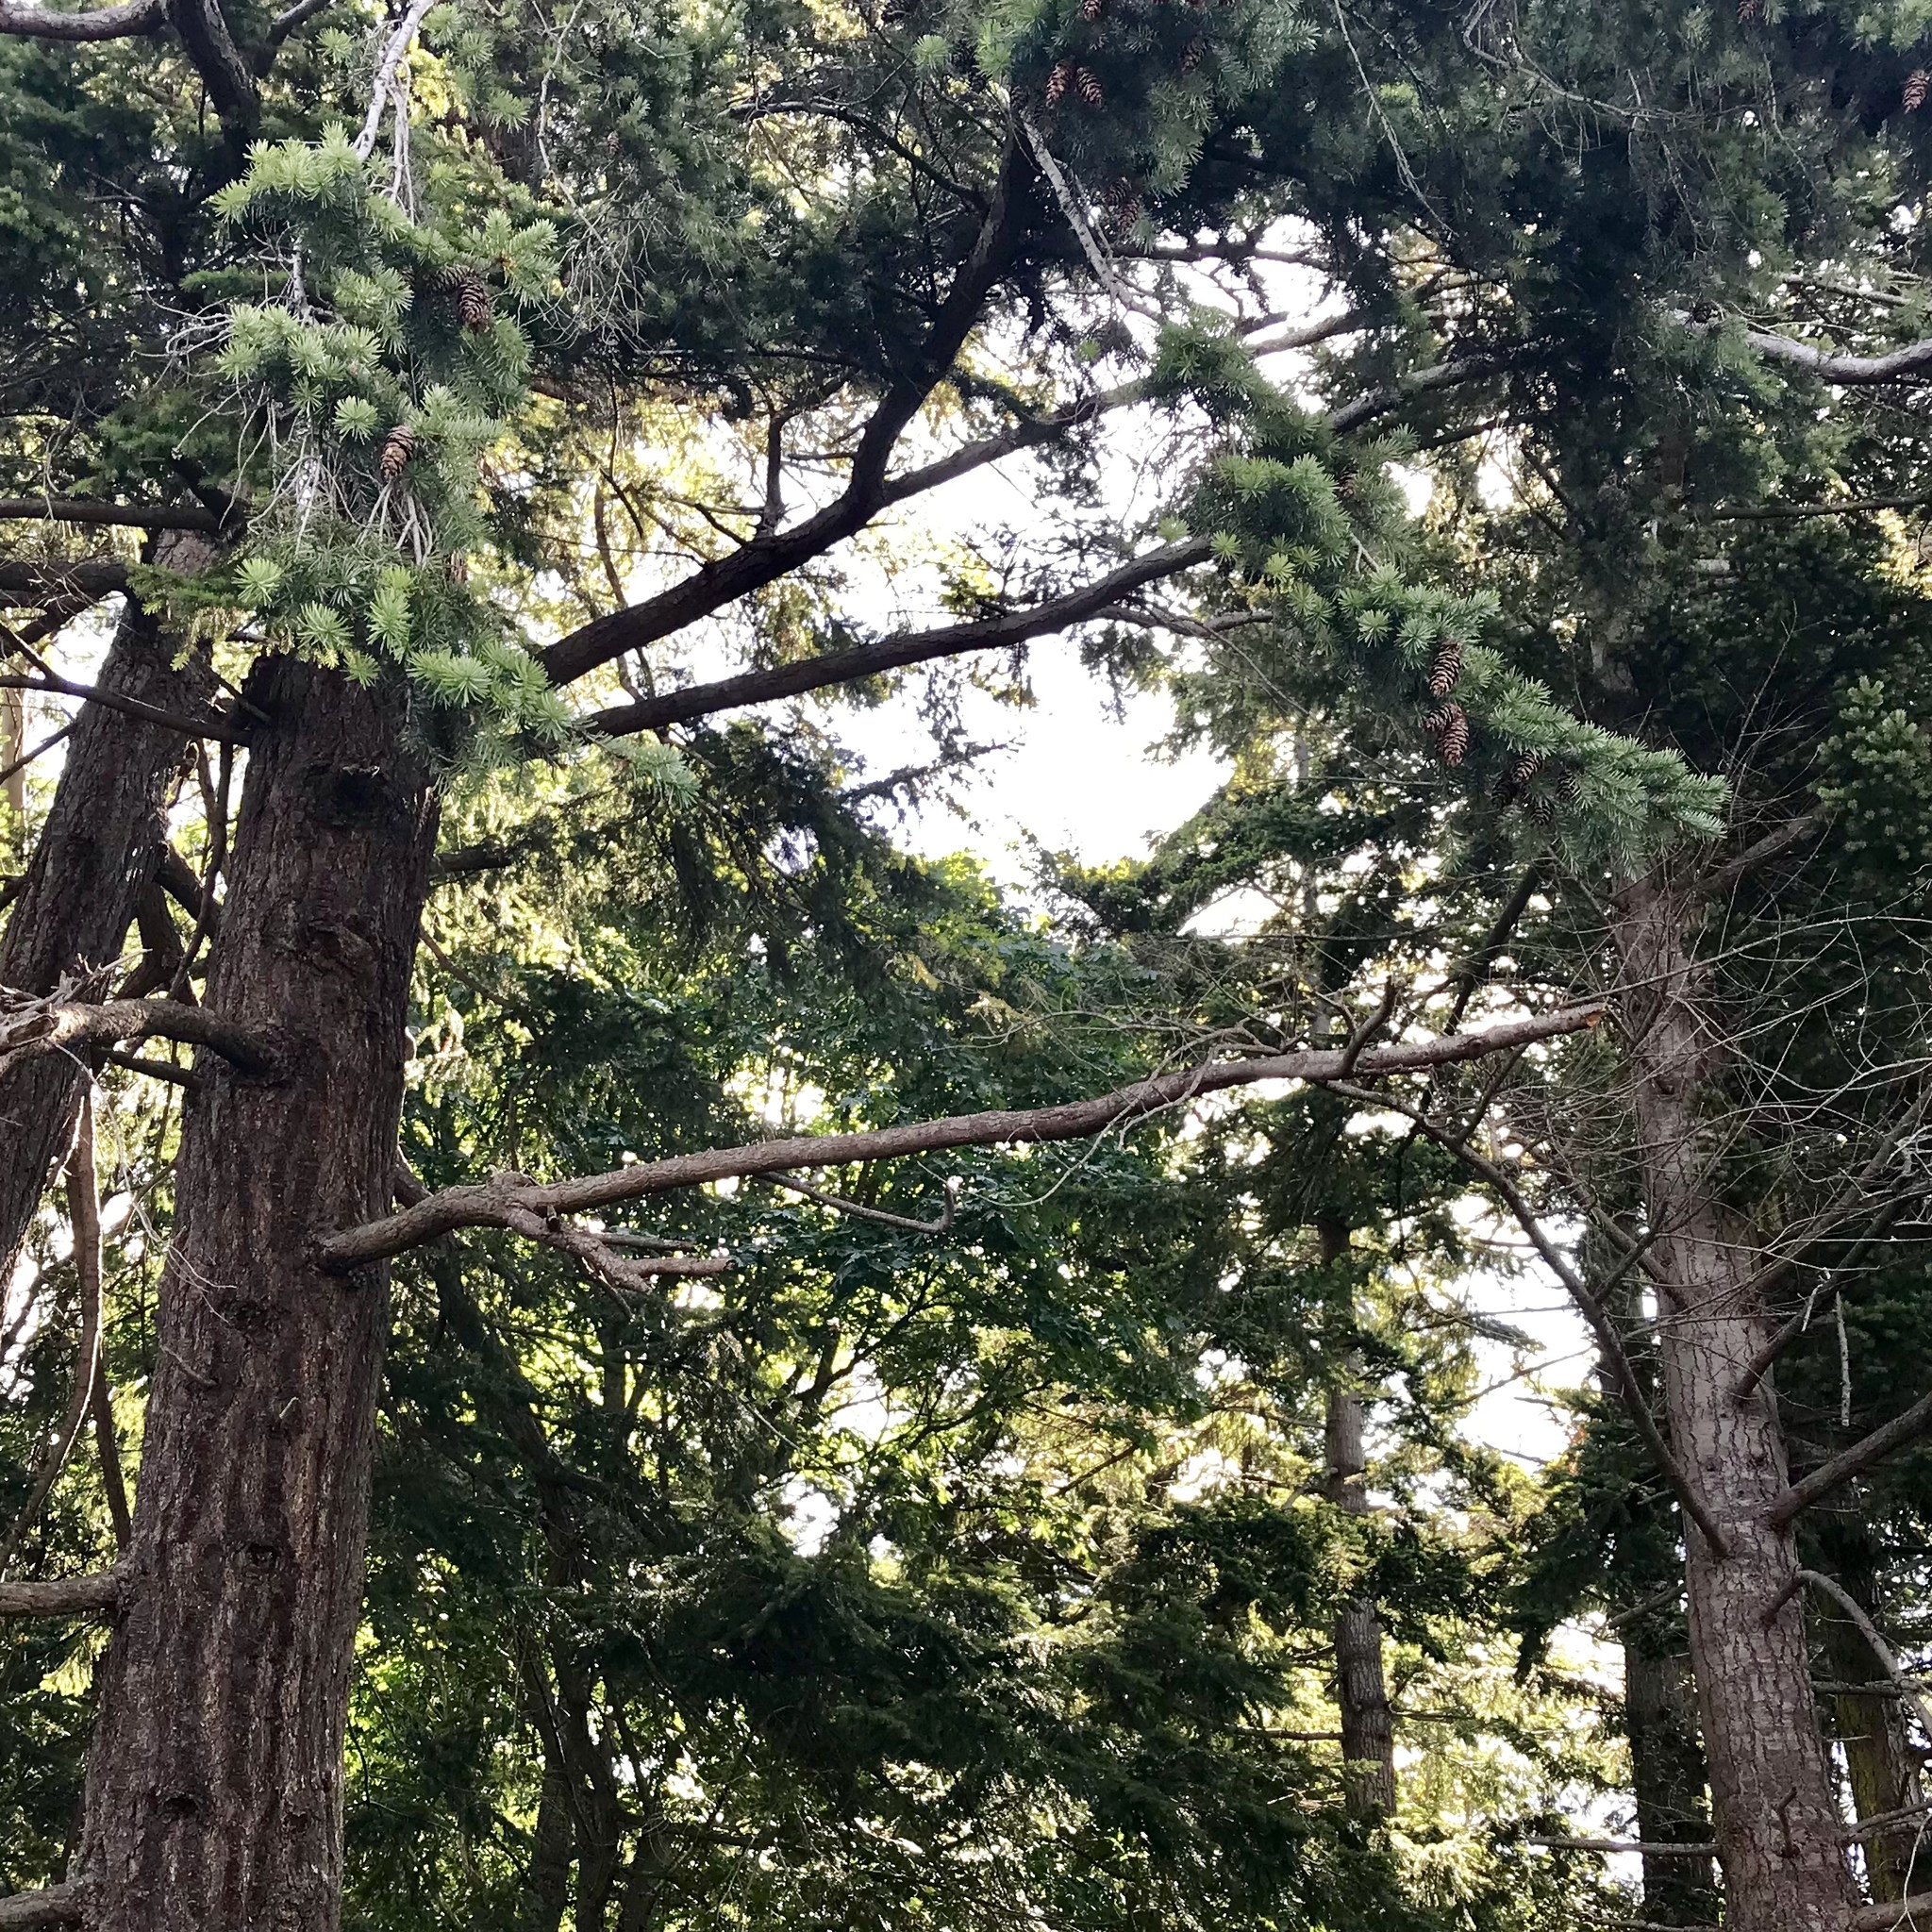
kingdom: Plantae
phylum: Tracheophyta
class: Pinopsida
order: Pinales
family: Pinaceae
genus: Pseudotsuga
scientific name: Pseudotsuga menziesii
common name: Douglas fir
